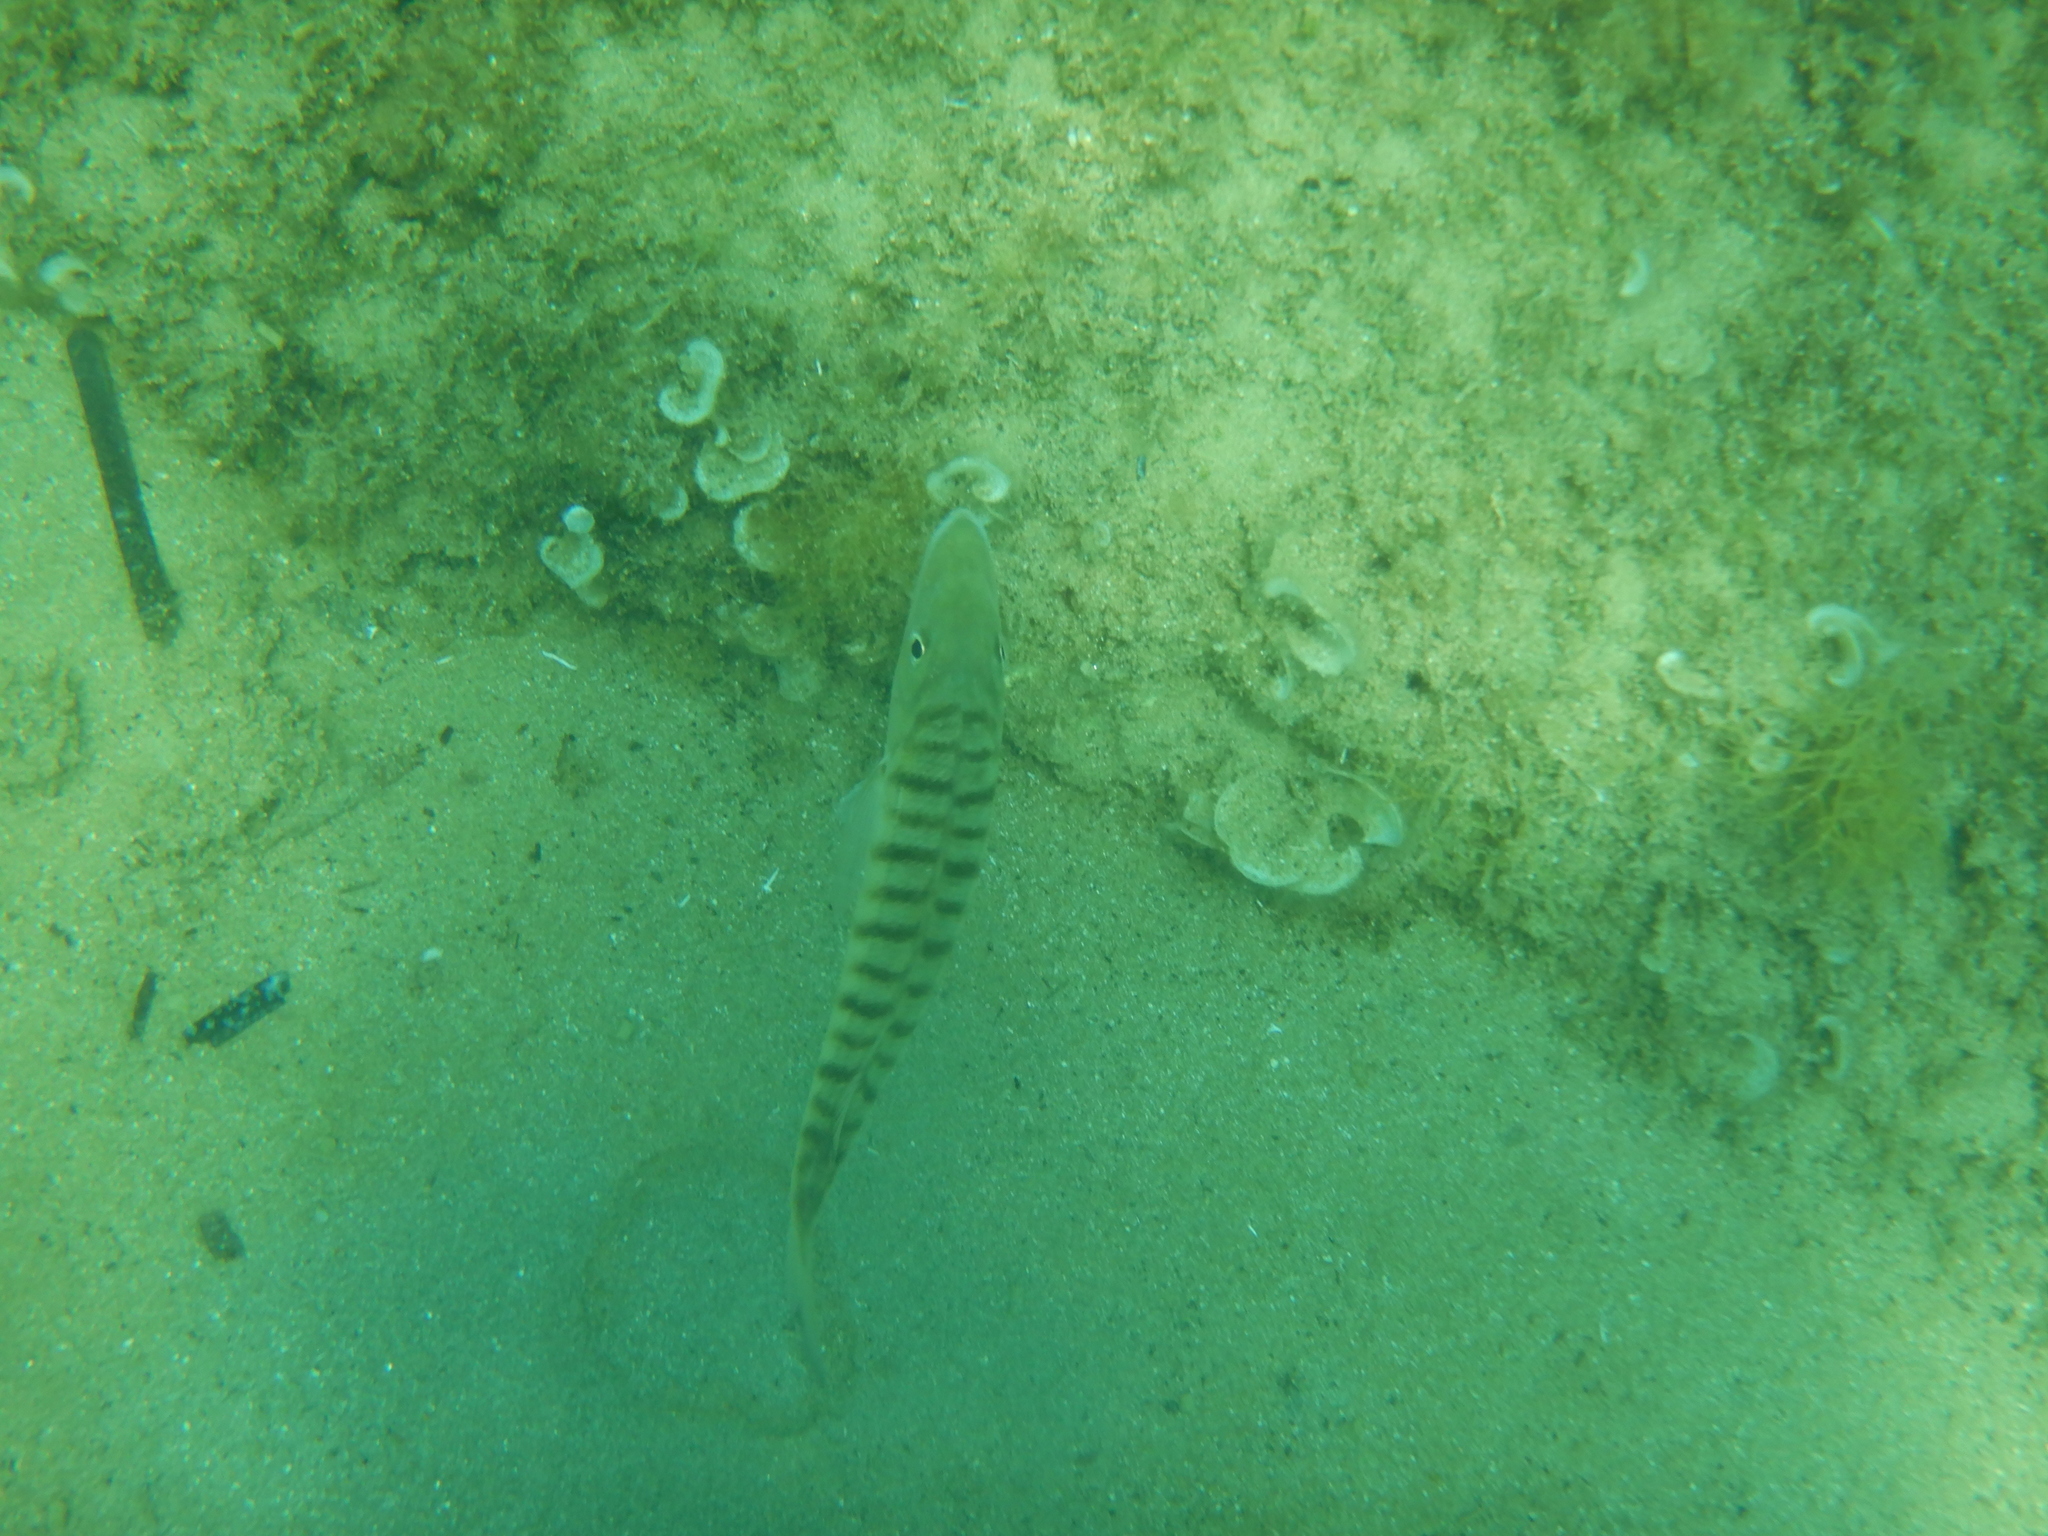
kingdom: Animalia
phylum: Chordata
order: Perciformes
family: Sparidae
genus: Lithognathus
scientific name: Lithognathus mormyrus
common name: Sand steenbras
